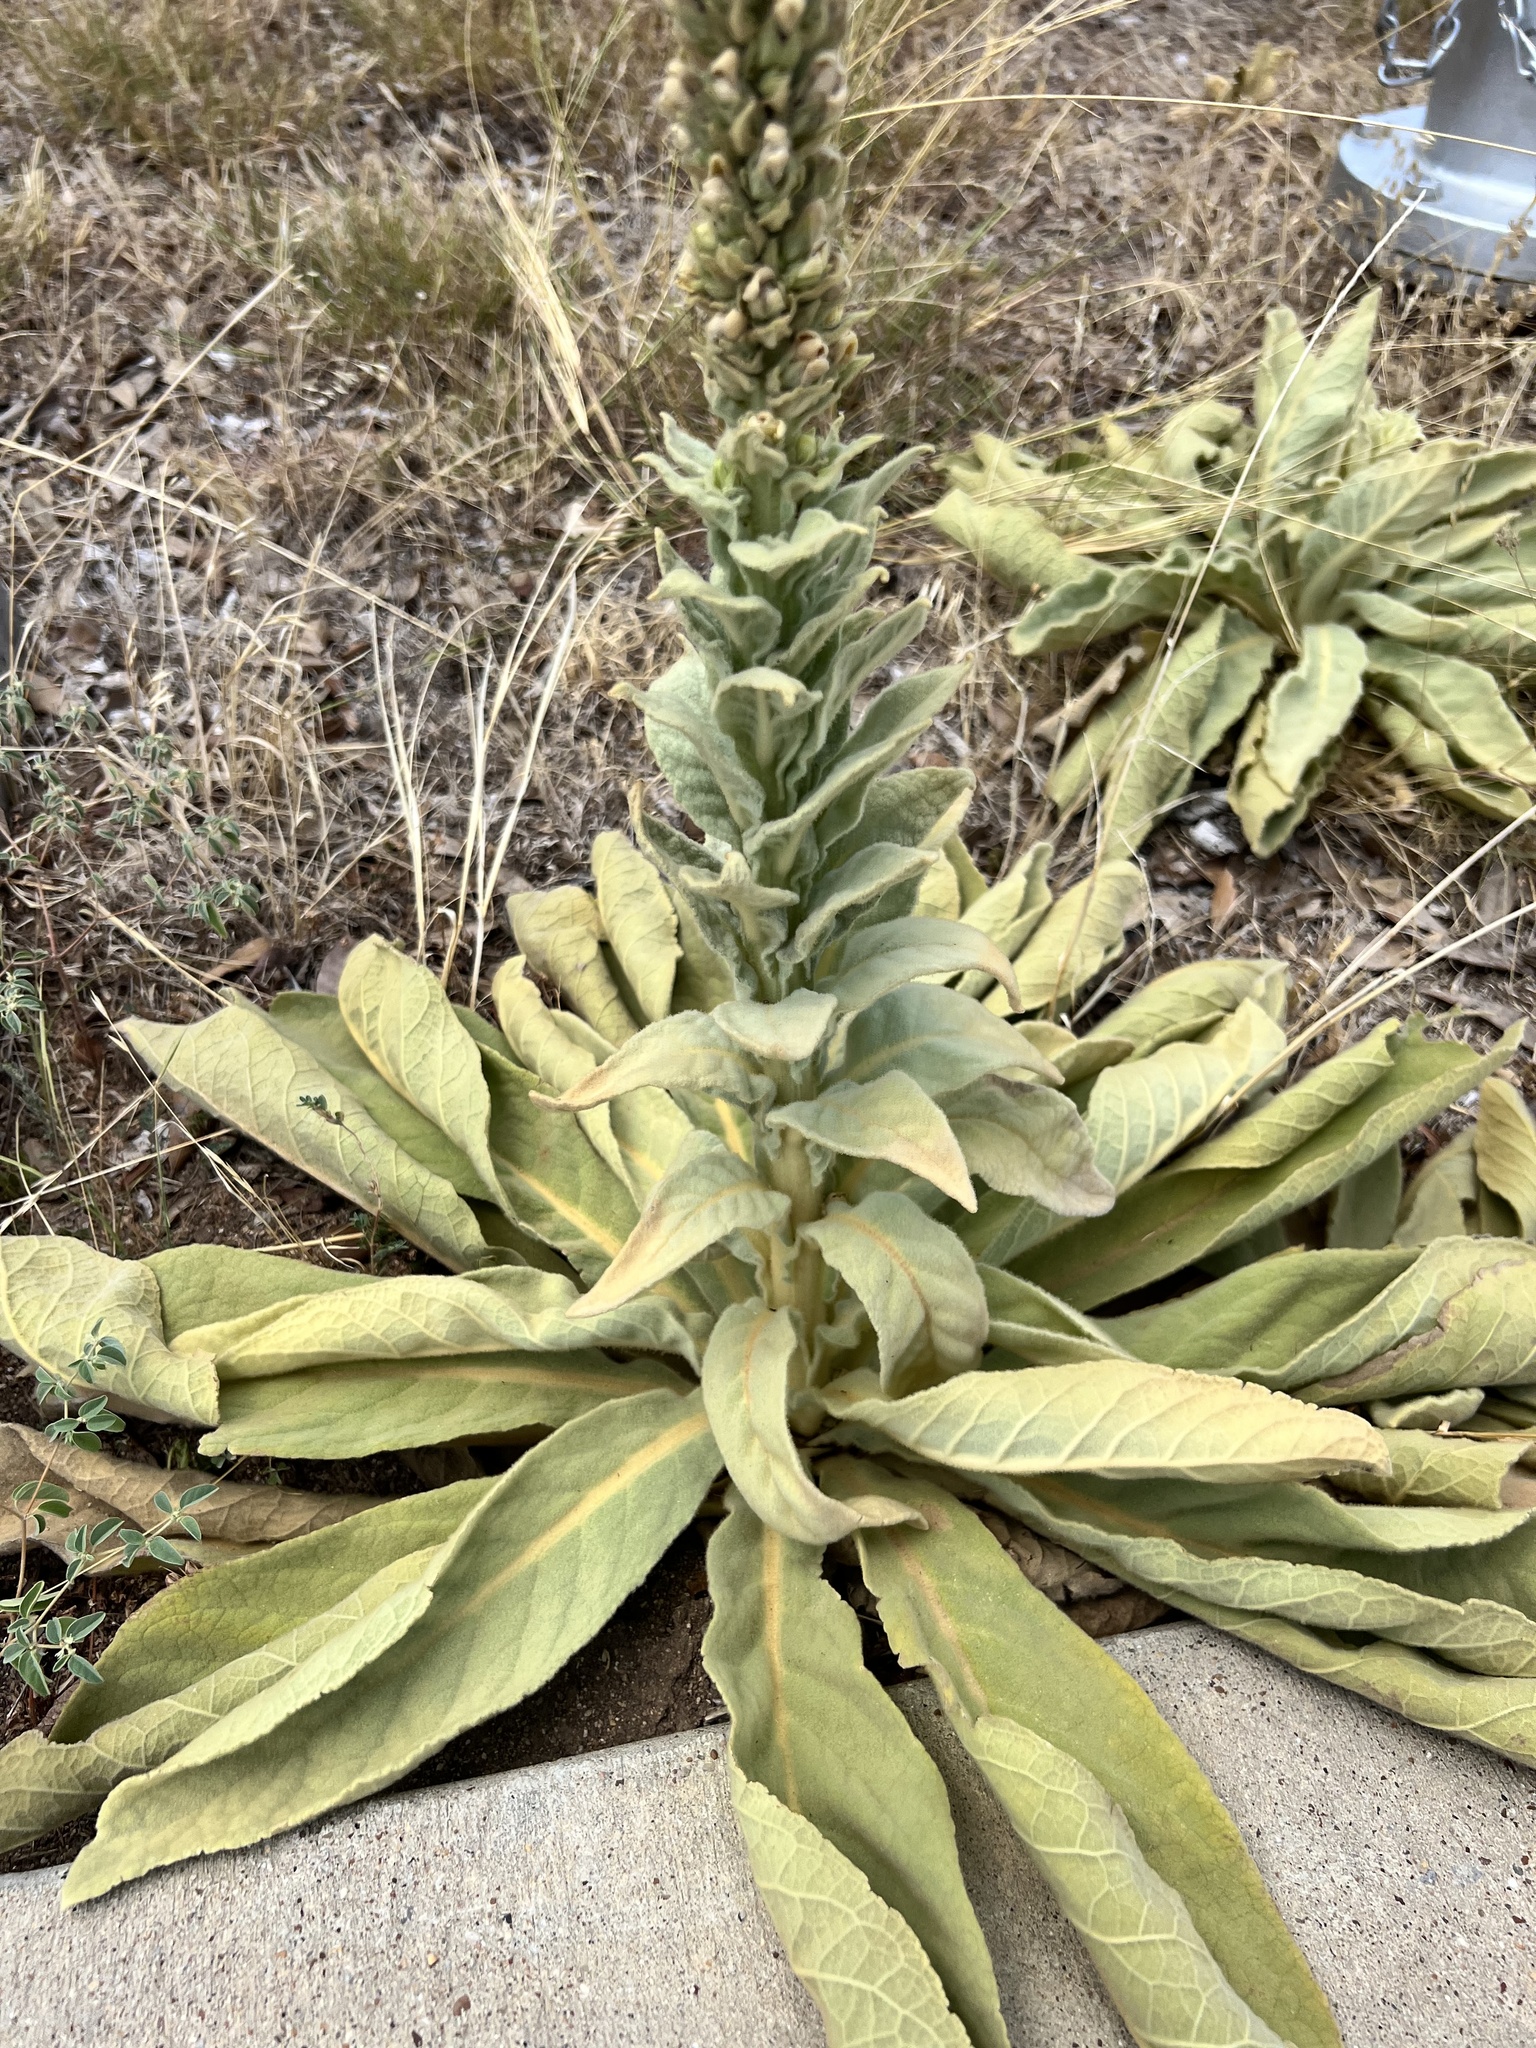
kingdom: Plantae
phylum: Tracheophyta
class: Magnoliopsida
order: Lamiales
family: Scrophulariaceae
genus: Verbascum
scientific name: Verbascum thapsus
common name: Common mullein
